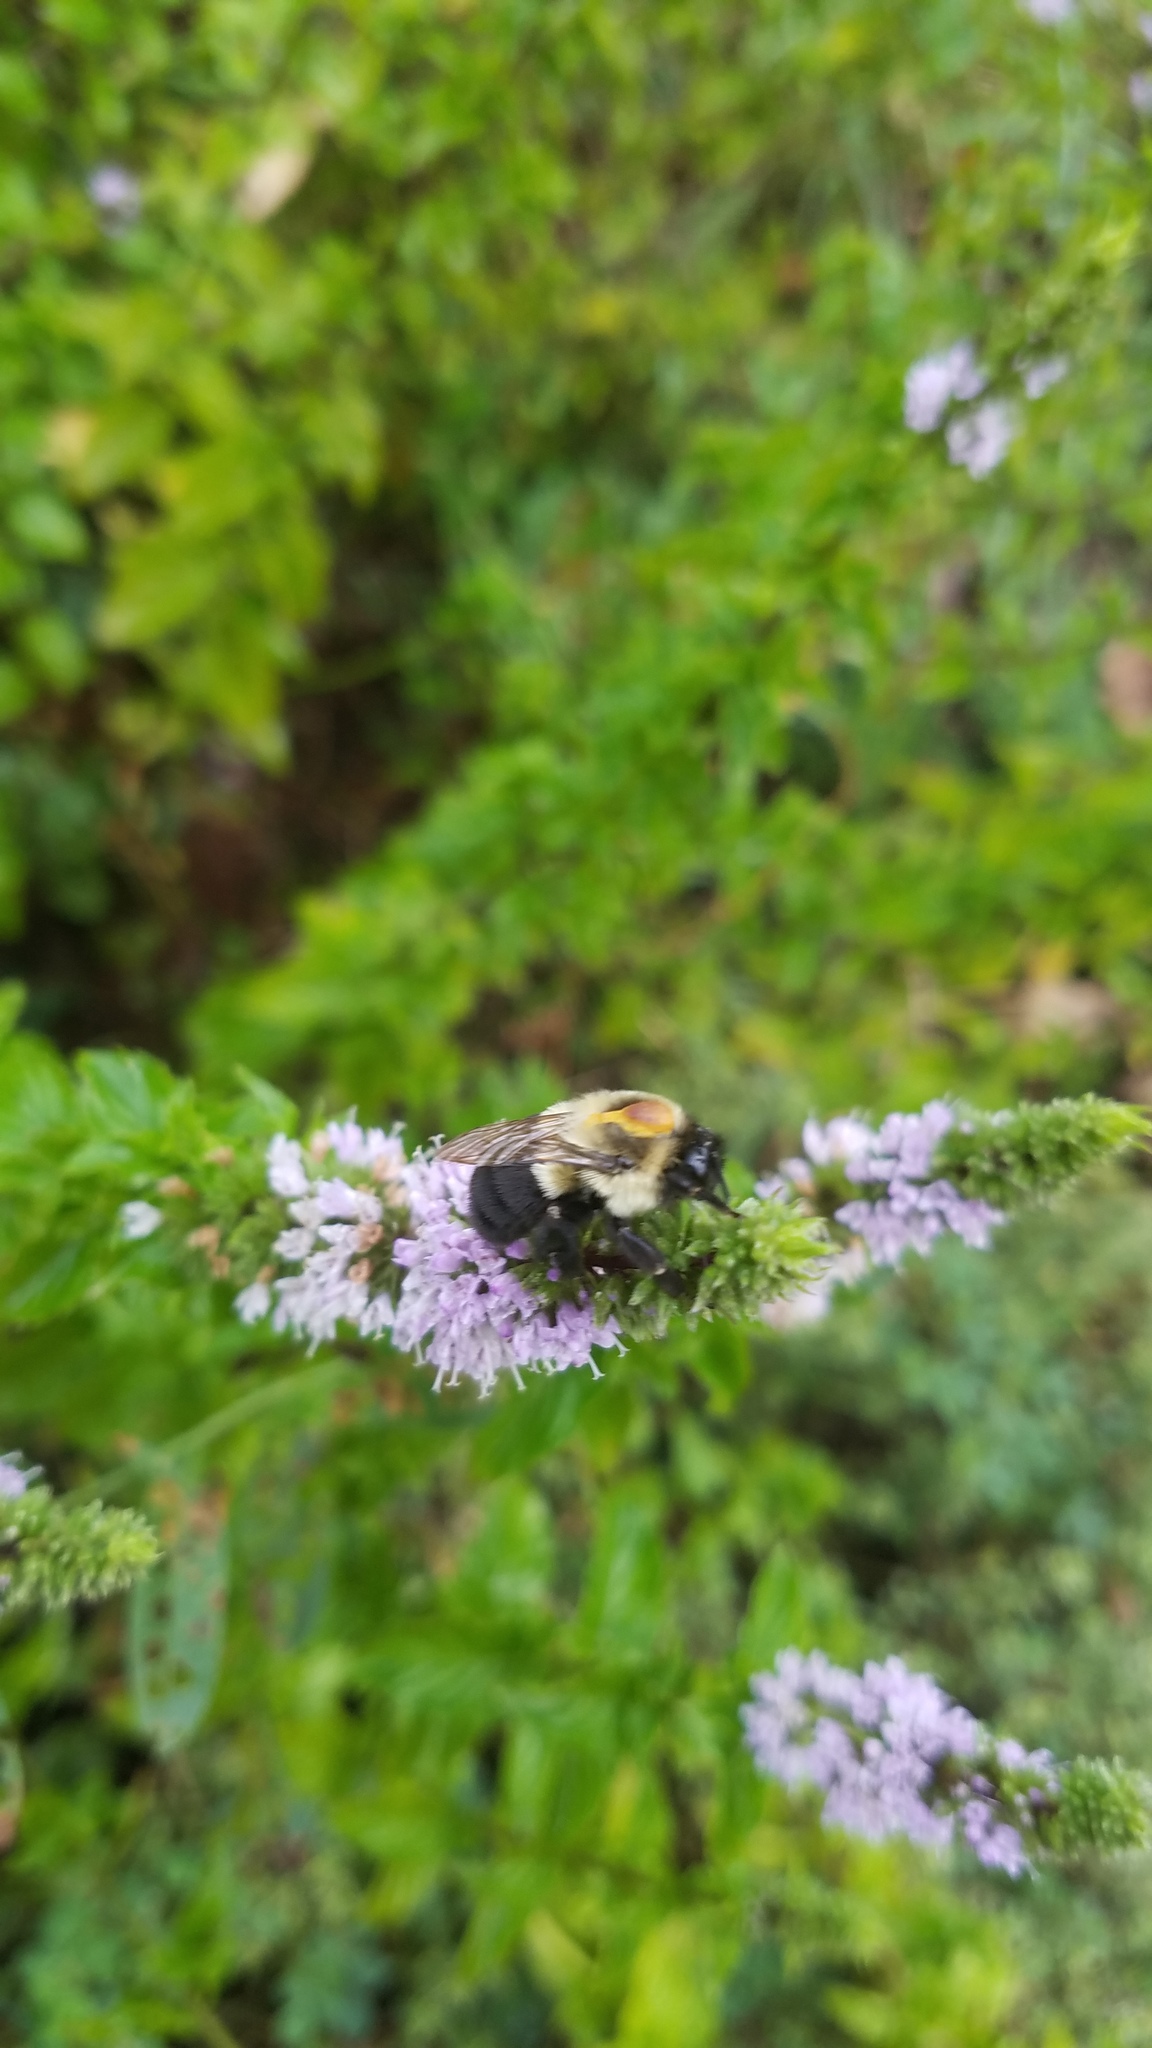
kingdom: Animalia
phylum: Arthropoda
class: Insecta
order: Hymenoptera
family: Apidae
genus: Bombus
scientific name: Bombus impatiens
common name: Common eastern bumble bee
